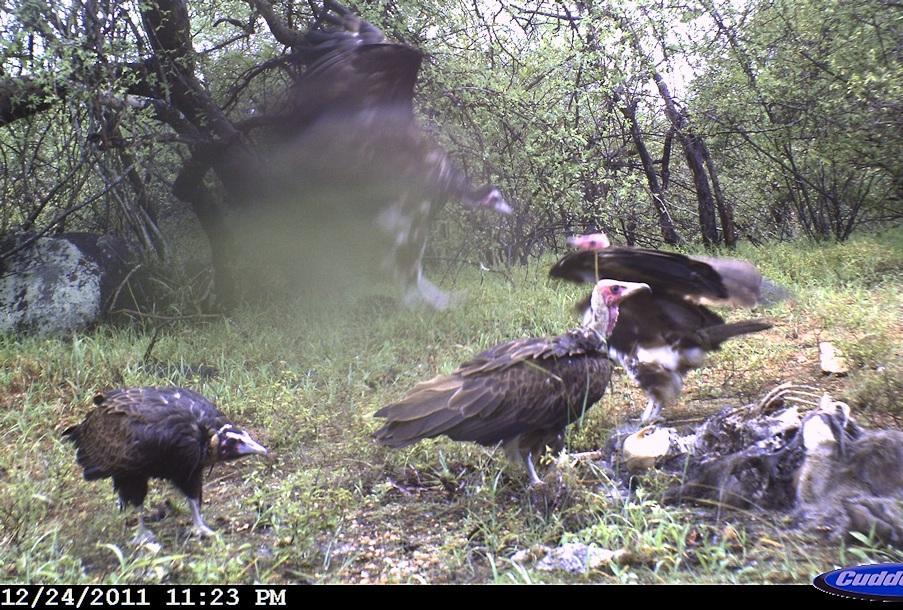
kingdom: Animalia
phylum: Chordata
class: Aves
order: Accipitriformes
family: Accipitridae
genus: Necrosyrtes
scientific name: Necrosyrtes monachus
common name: Hooded vulture
